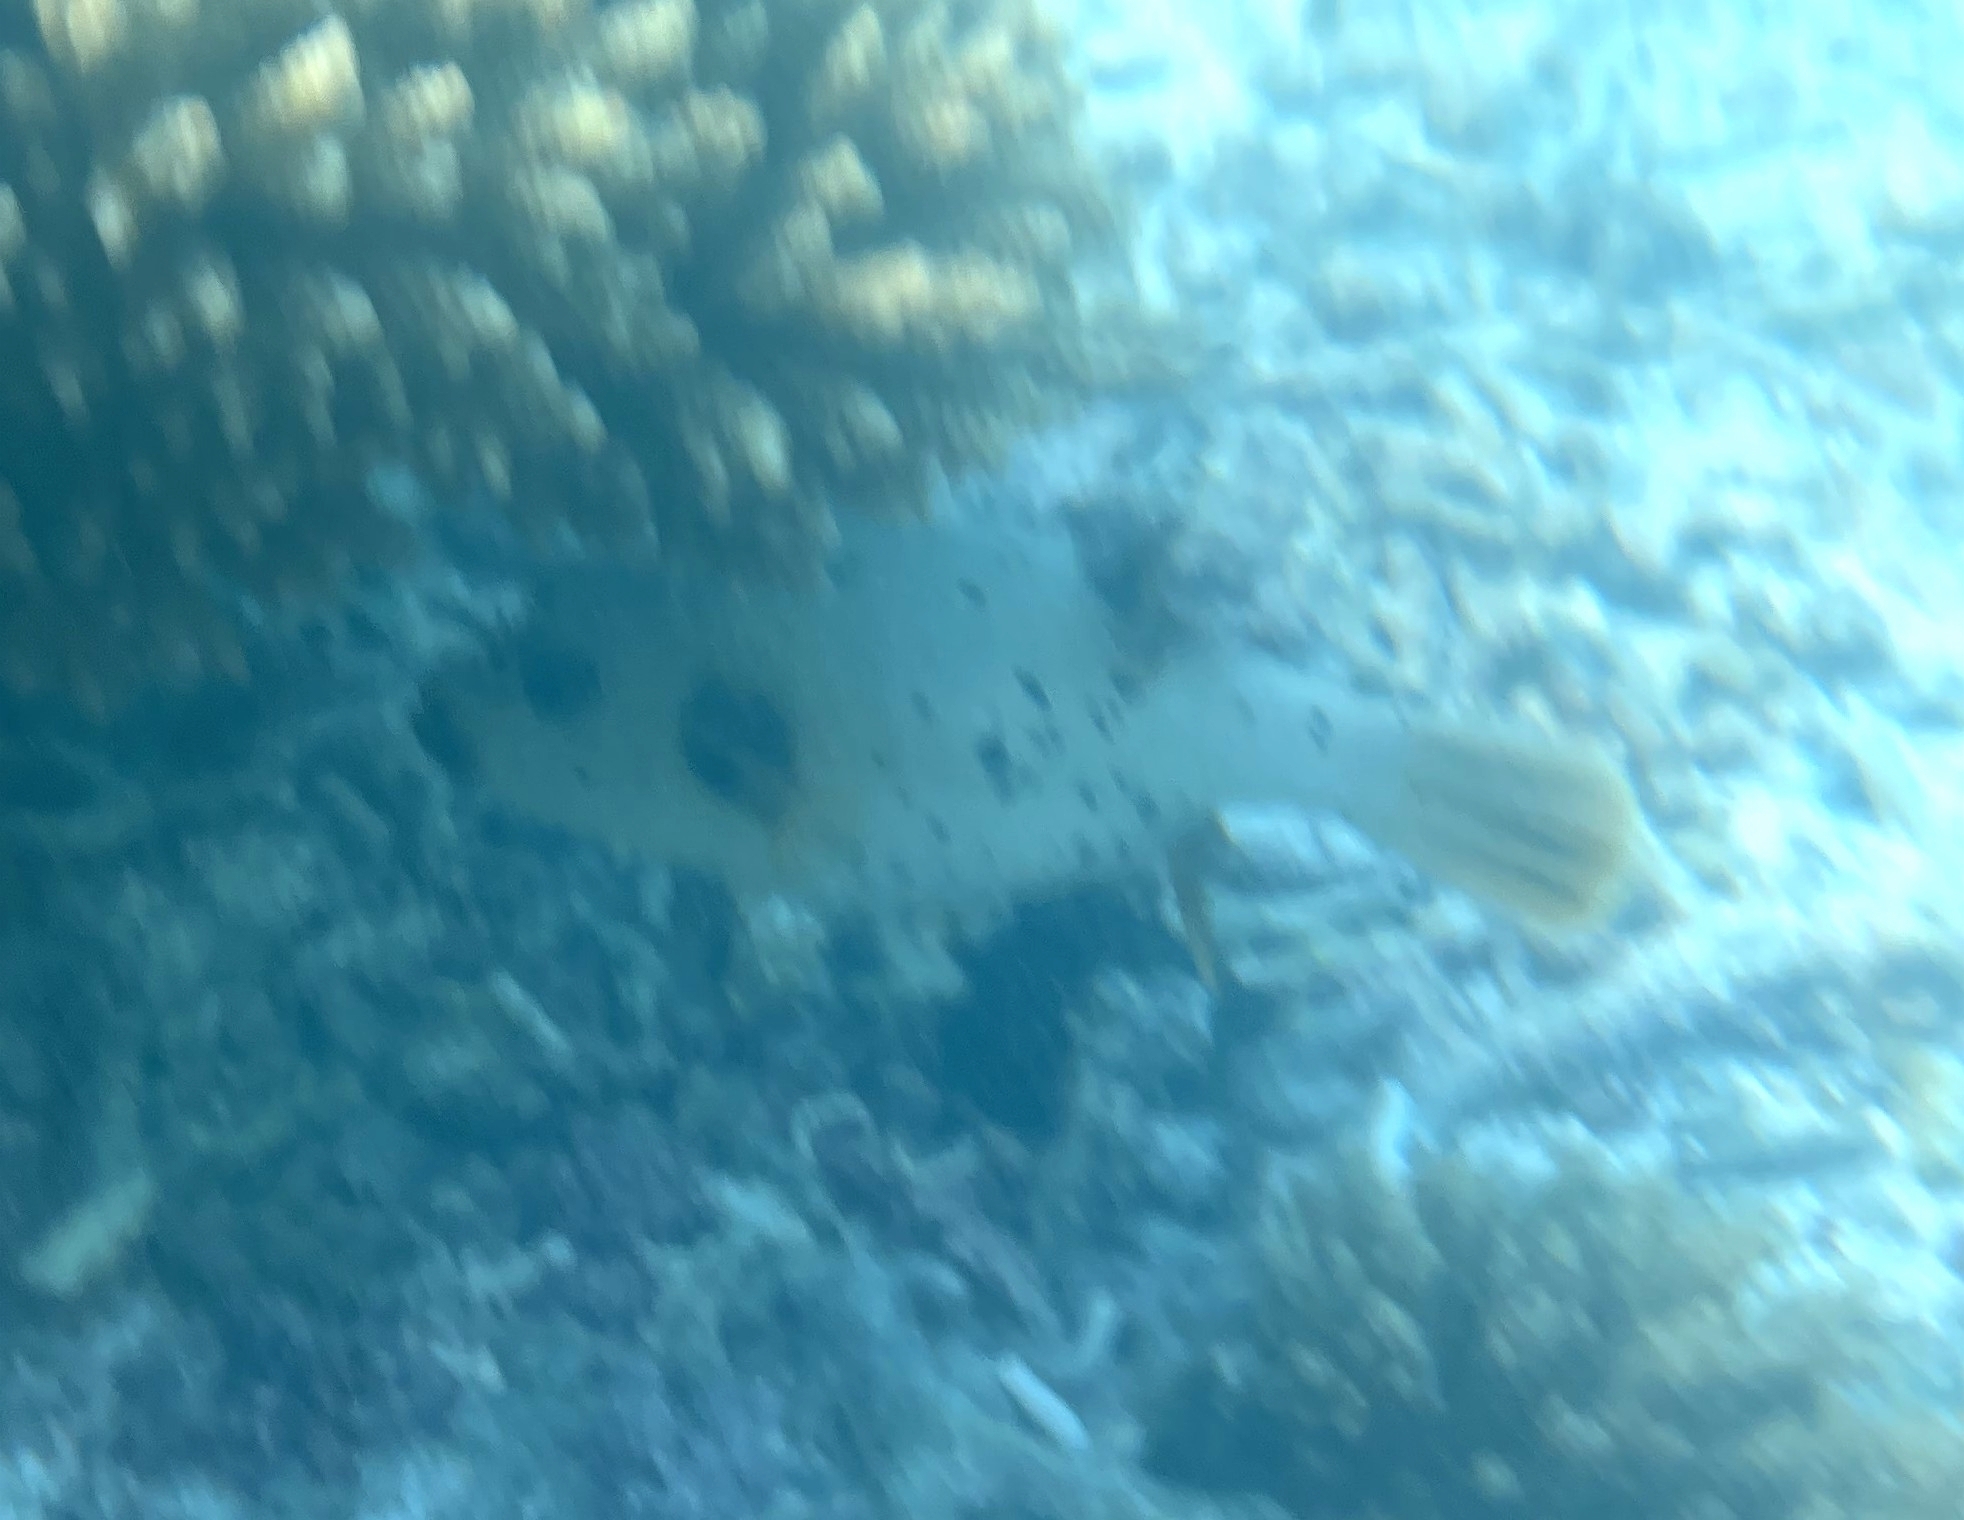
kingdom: Animalia
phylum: Chordata
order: Tetraodontiformes
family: Tetraodontidae
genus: Arothron
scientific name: Arothron nigropunctatus
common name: Black spotted blow fish
